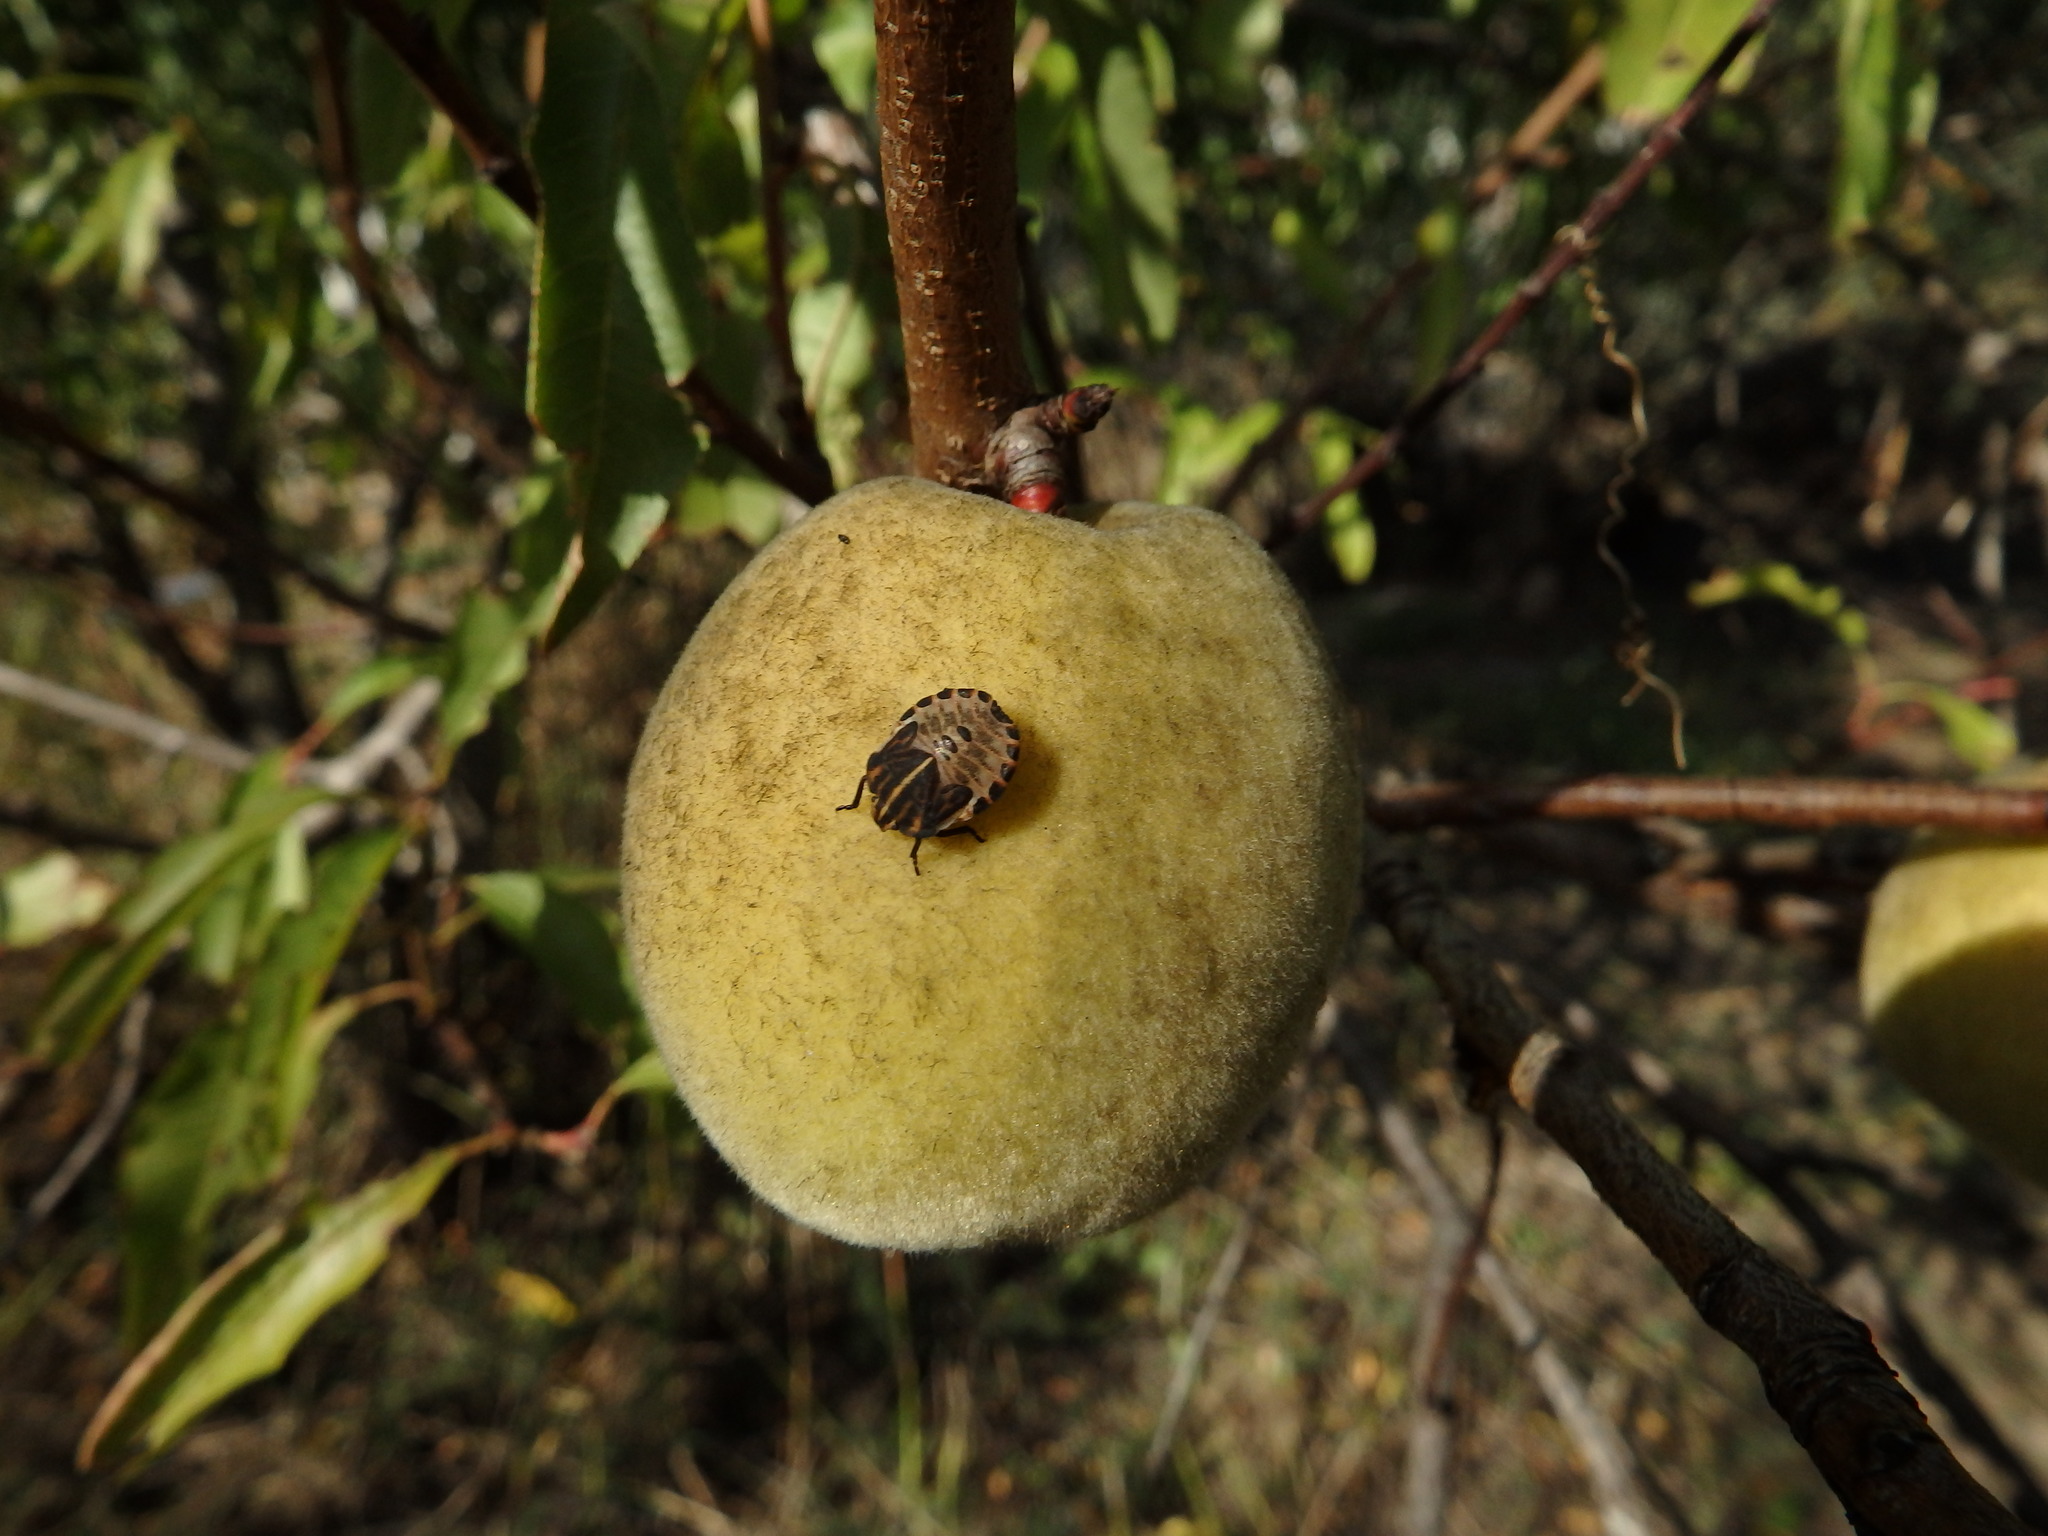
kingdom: Animalia
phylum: Arthropoda
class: Insecta
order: Hemiptera
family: Pentatomidae
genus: Graphosoma
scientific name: Graphosoma italicum
